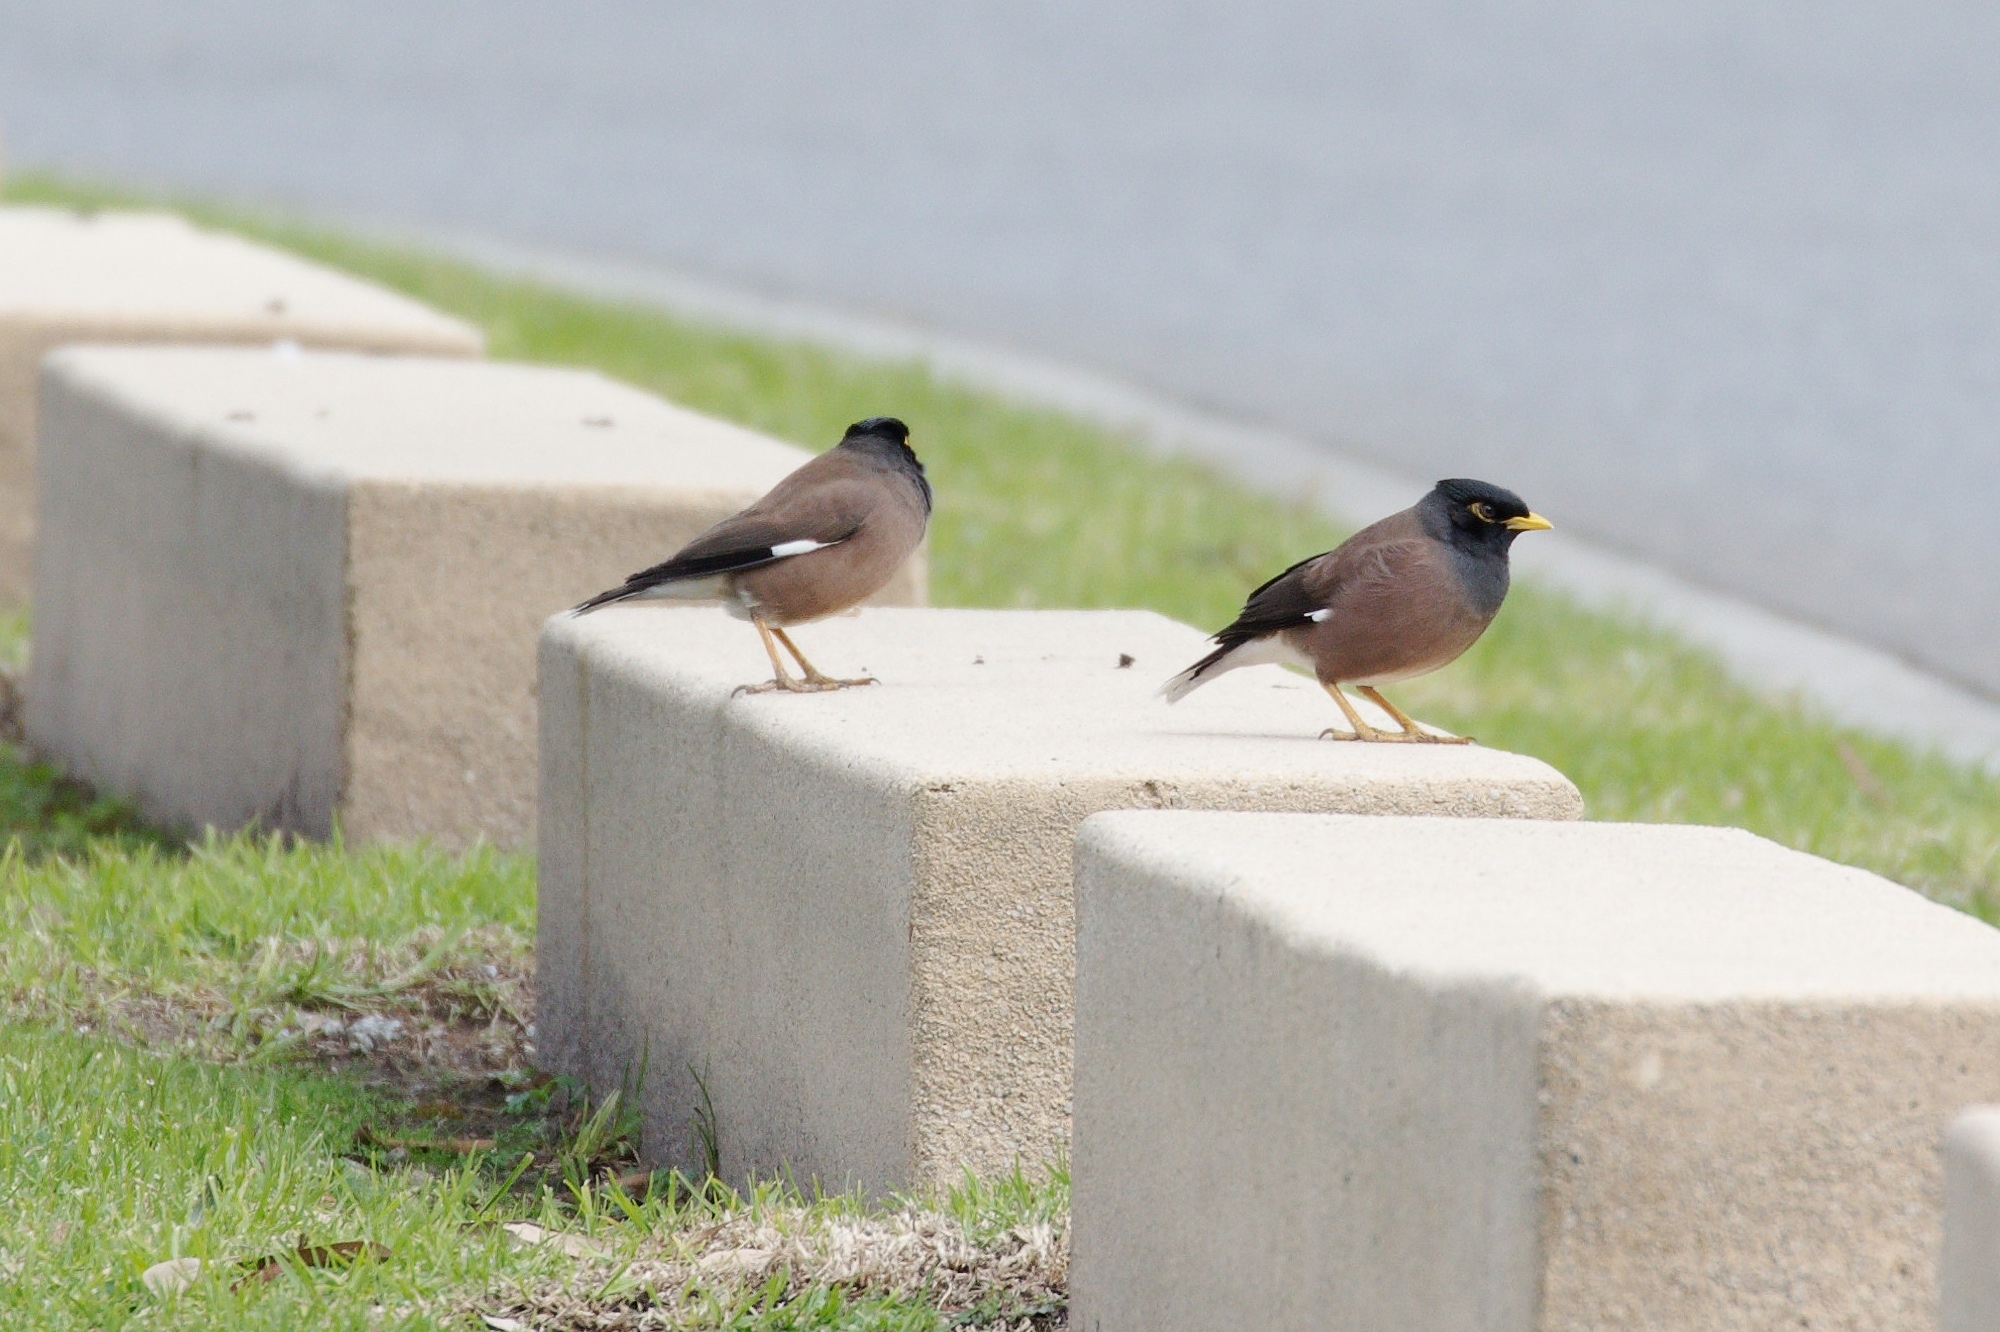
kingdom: Animalia
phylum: Chordata
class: Aves
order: Passeriformes
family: Sturnidae
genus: Acridotheres
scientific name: Acridotheres tristis
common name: Common myna
